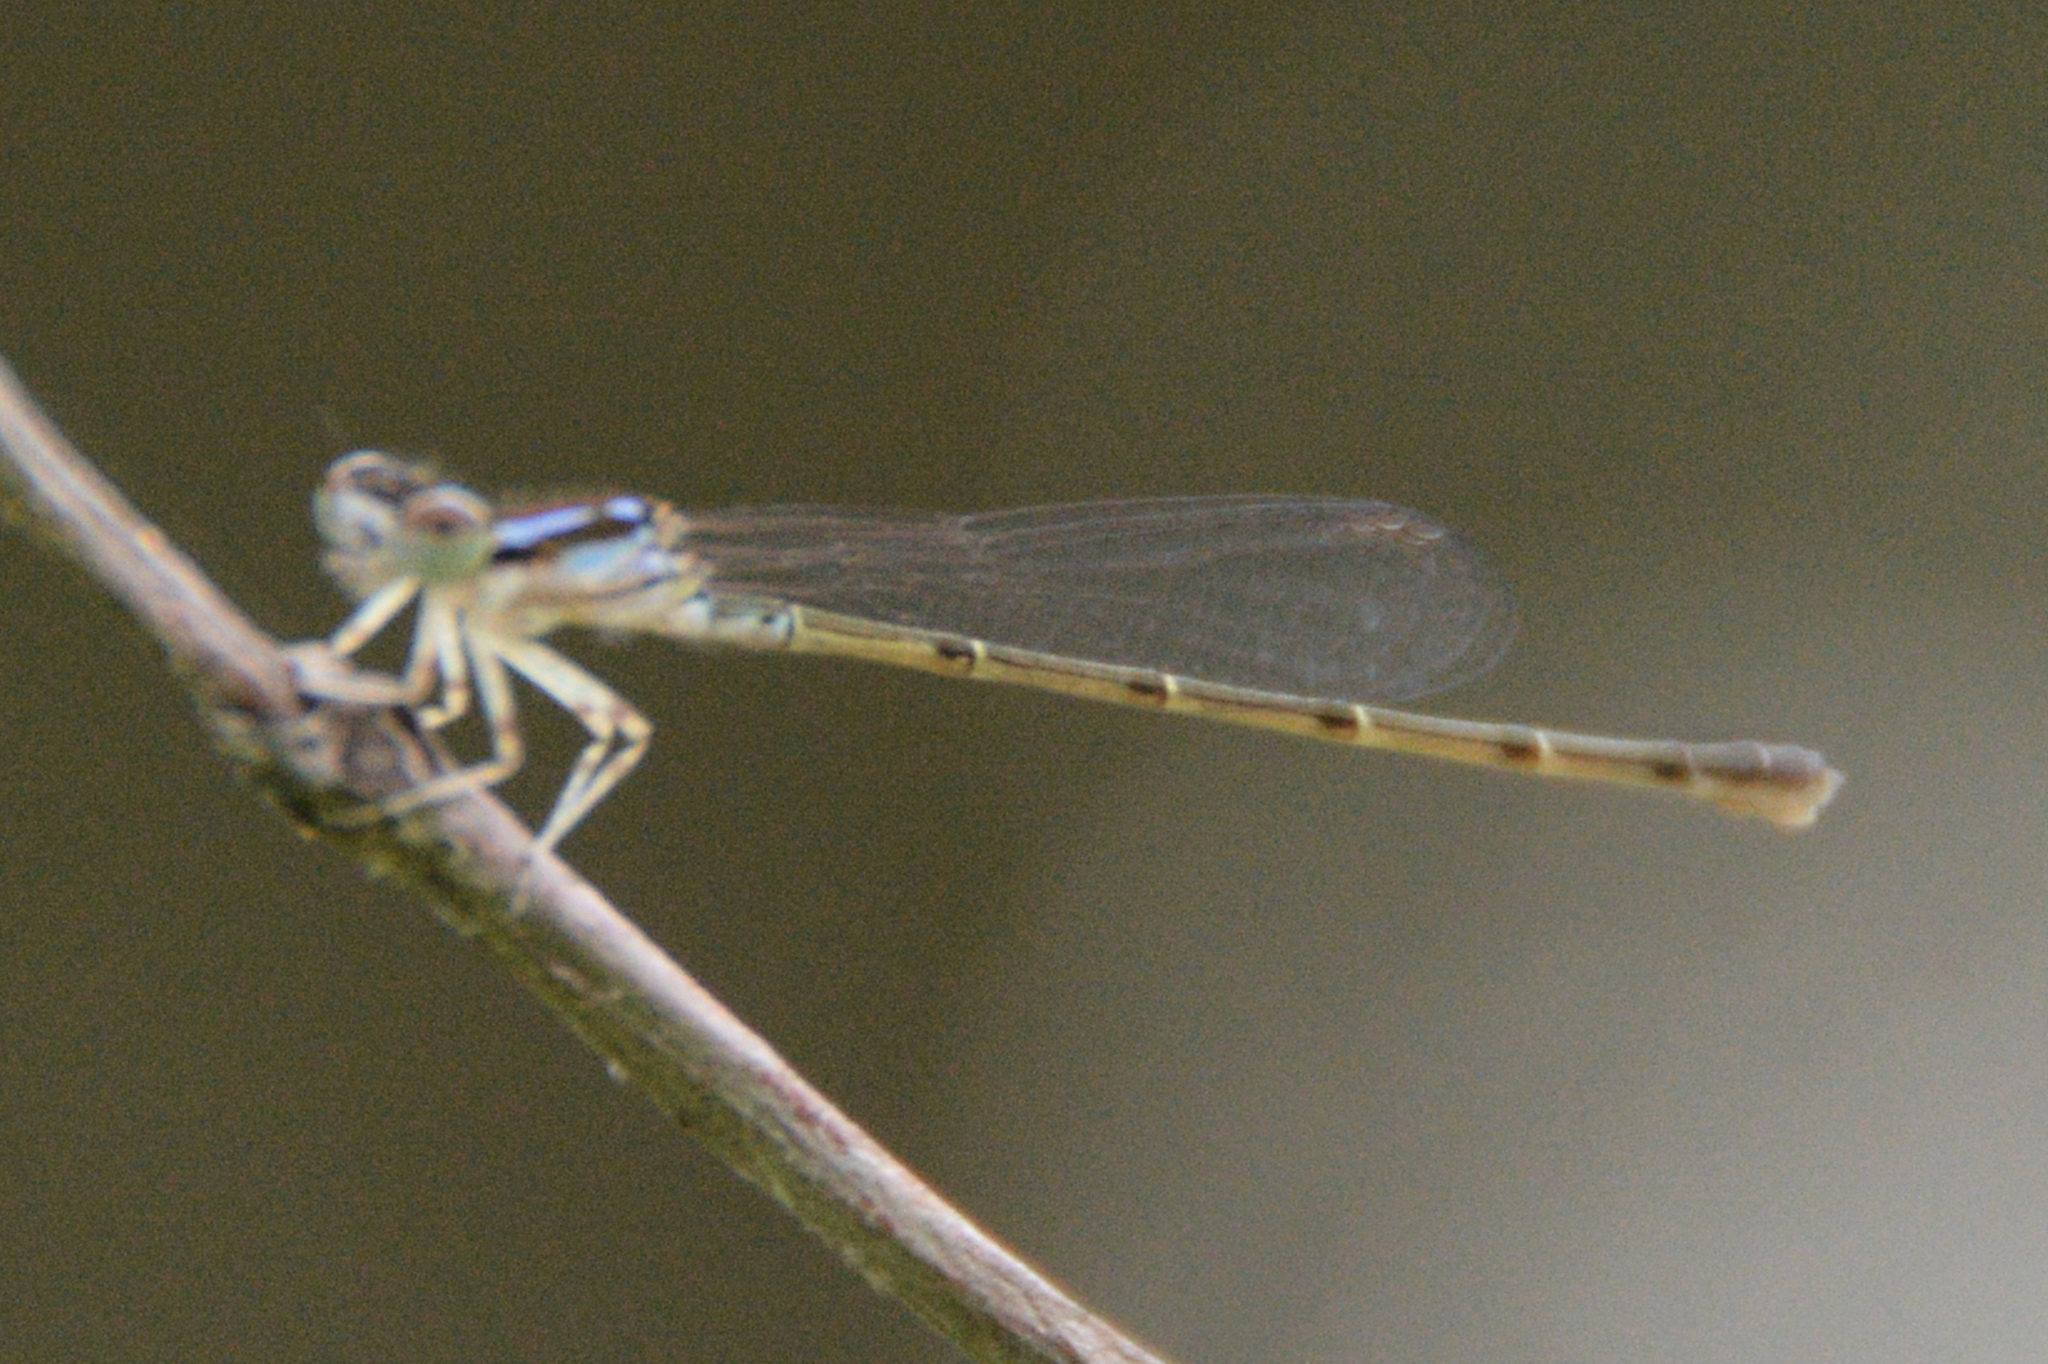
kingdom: Animalia
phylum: Arthropoda
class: Insecta
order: Odonata
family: Coenagrionidae
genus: Ischnura
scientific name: Ischnura posita
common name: Fragile forktail
